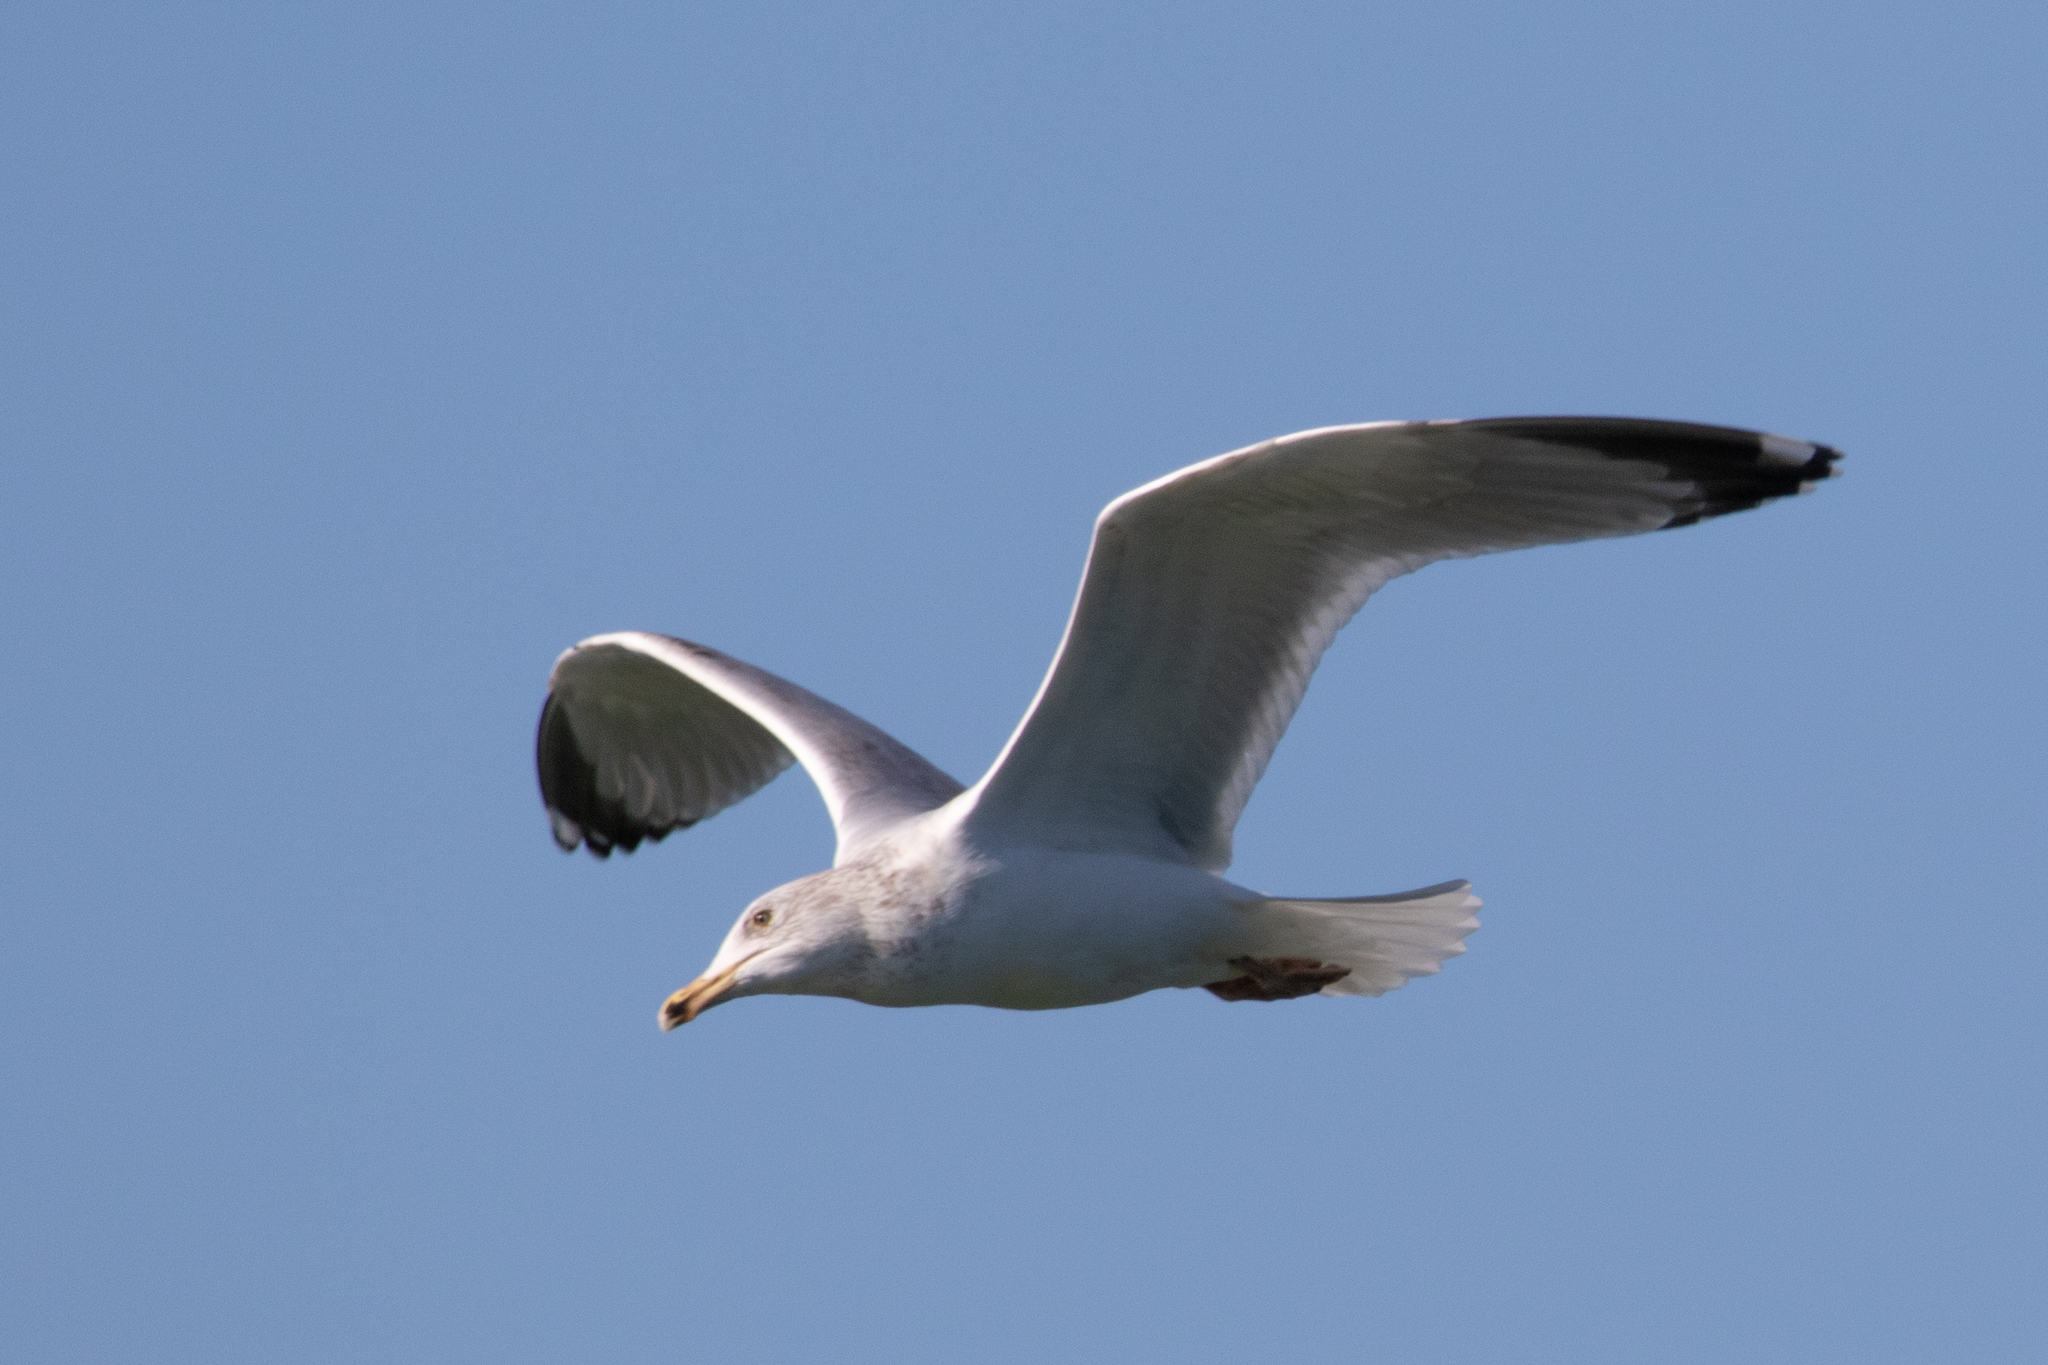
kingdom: Animalia
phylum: Chordata
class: Aves
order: Charadriiformes
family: Laridae
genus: Larus
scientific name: Larus michahellis
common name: Yellow-legged gull
